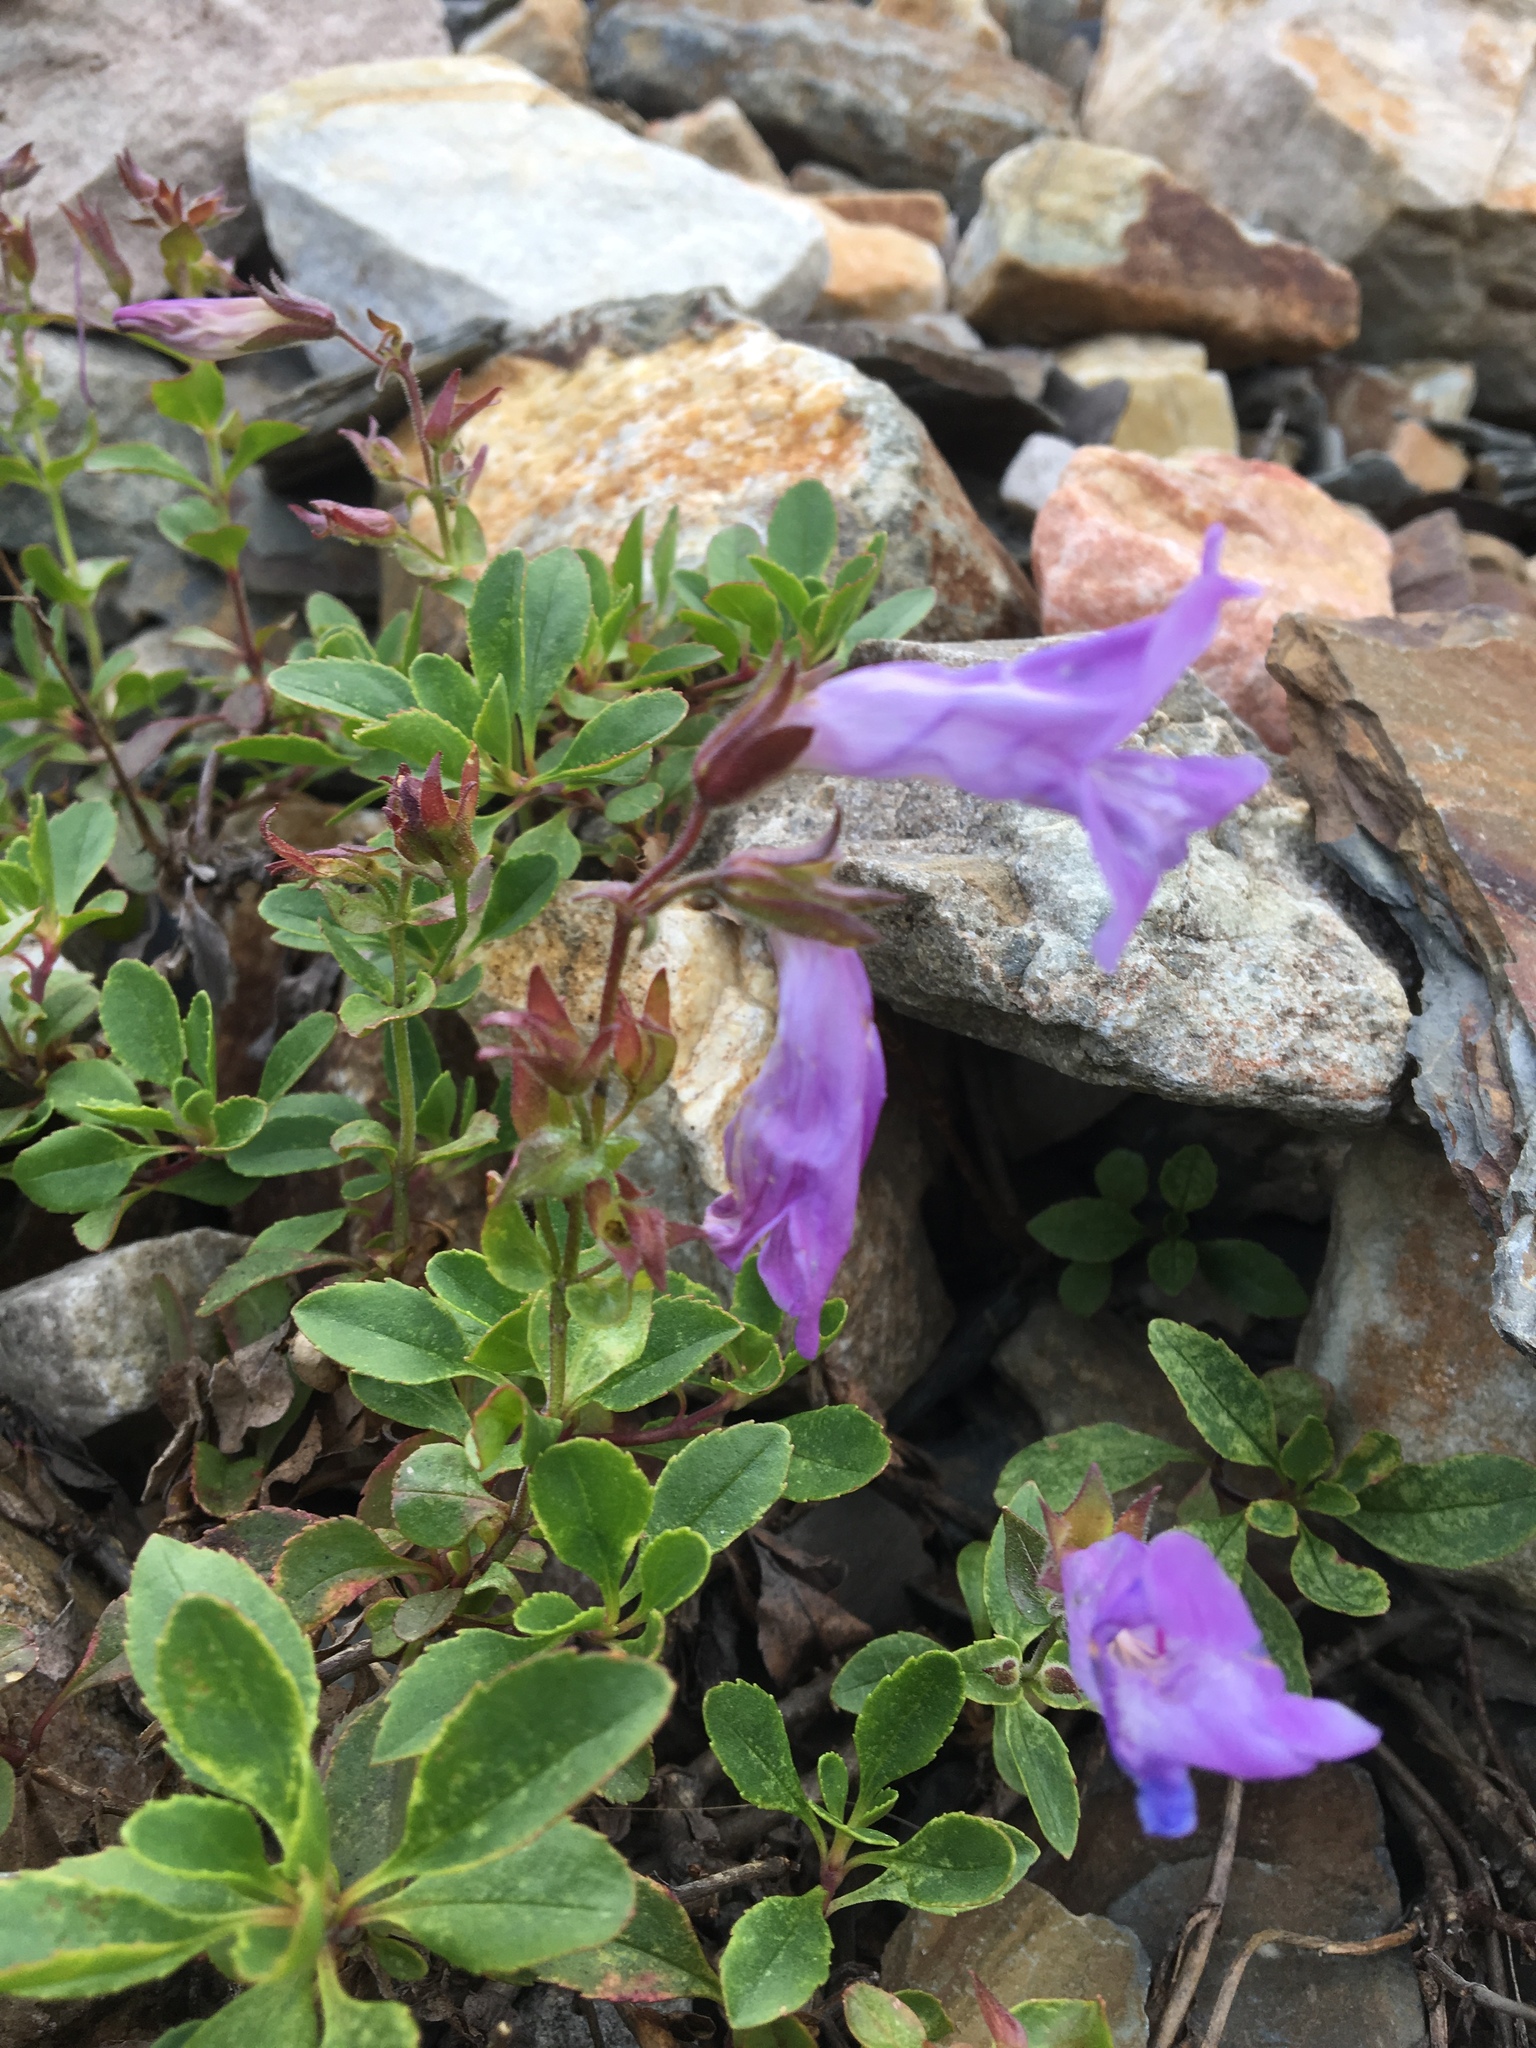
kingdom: Plantae
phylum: Tracheophyta
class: Magnoliopsida
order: Lamiales
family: Plantaginaceae
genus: Penstemon
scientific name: Penstemon ellipticus
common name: Alpine beardtongue
